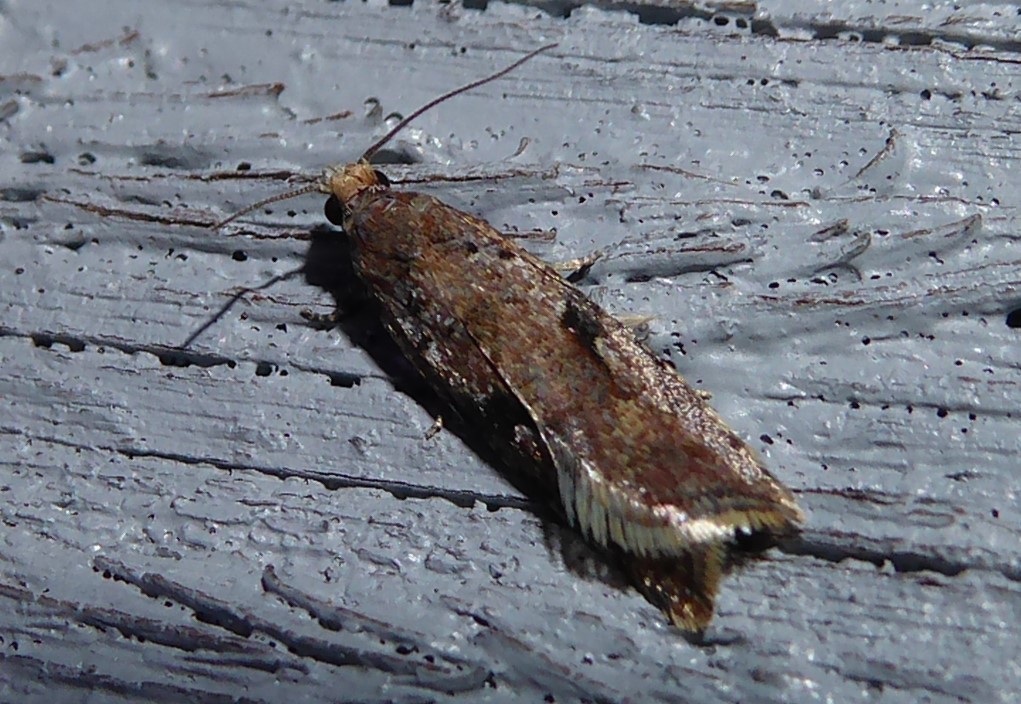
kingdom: Animalia
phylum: Arthropoda
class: Insecta
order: Lepidoptera
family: Tortricidae
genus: Capua
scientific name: Capua semiferana
